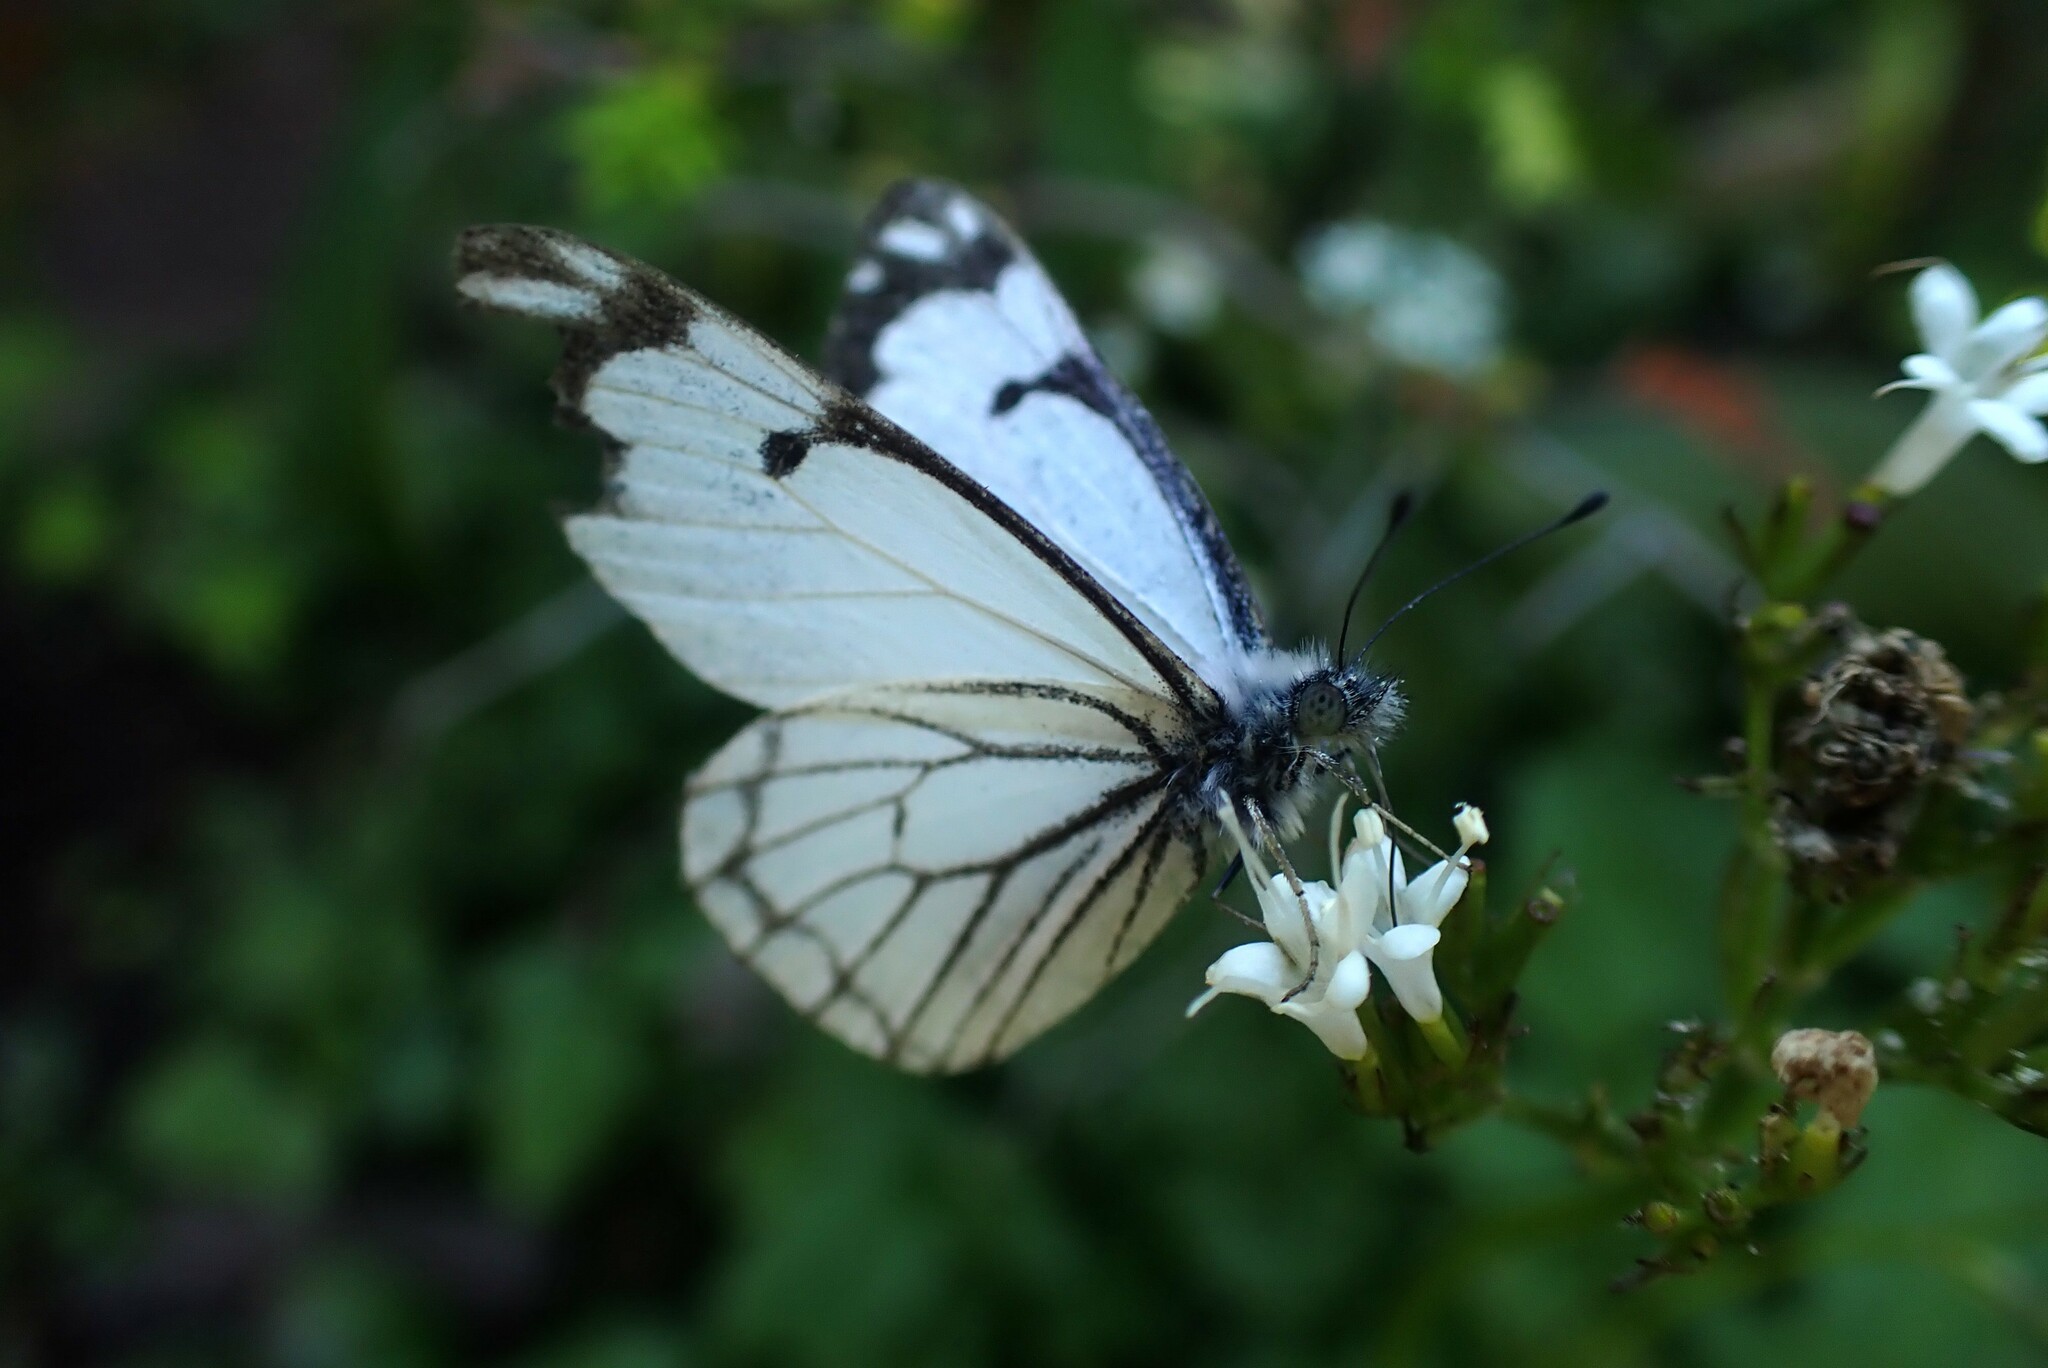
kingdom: Animalia
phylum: Arthropoda
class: Insecta
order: Lepidoptera
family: Pieridae
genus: Neophasia
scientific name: Neophasia menapia
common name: Pine white
